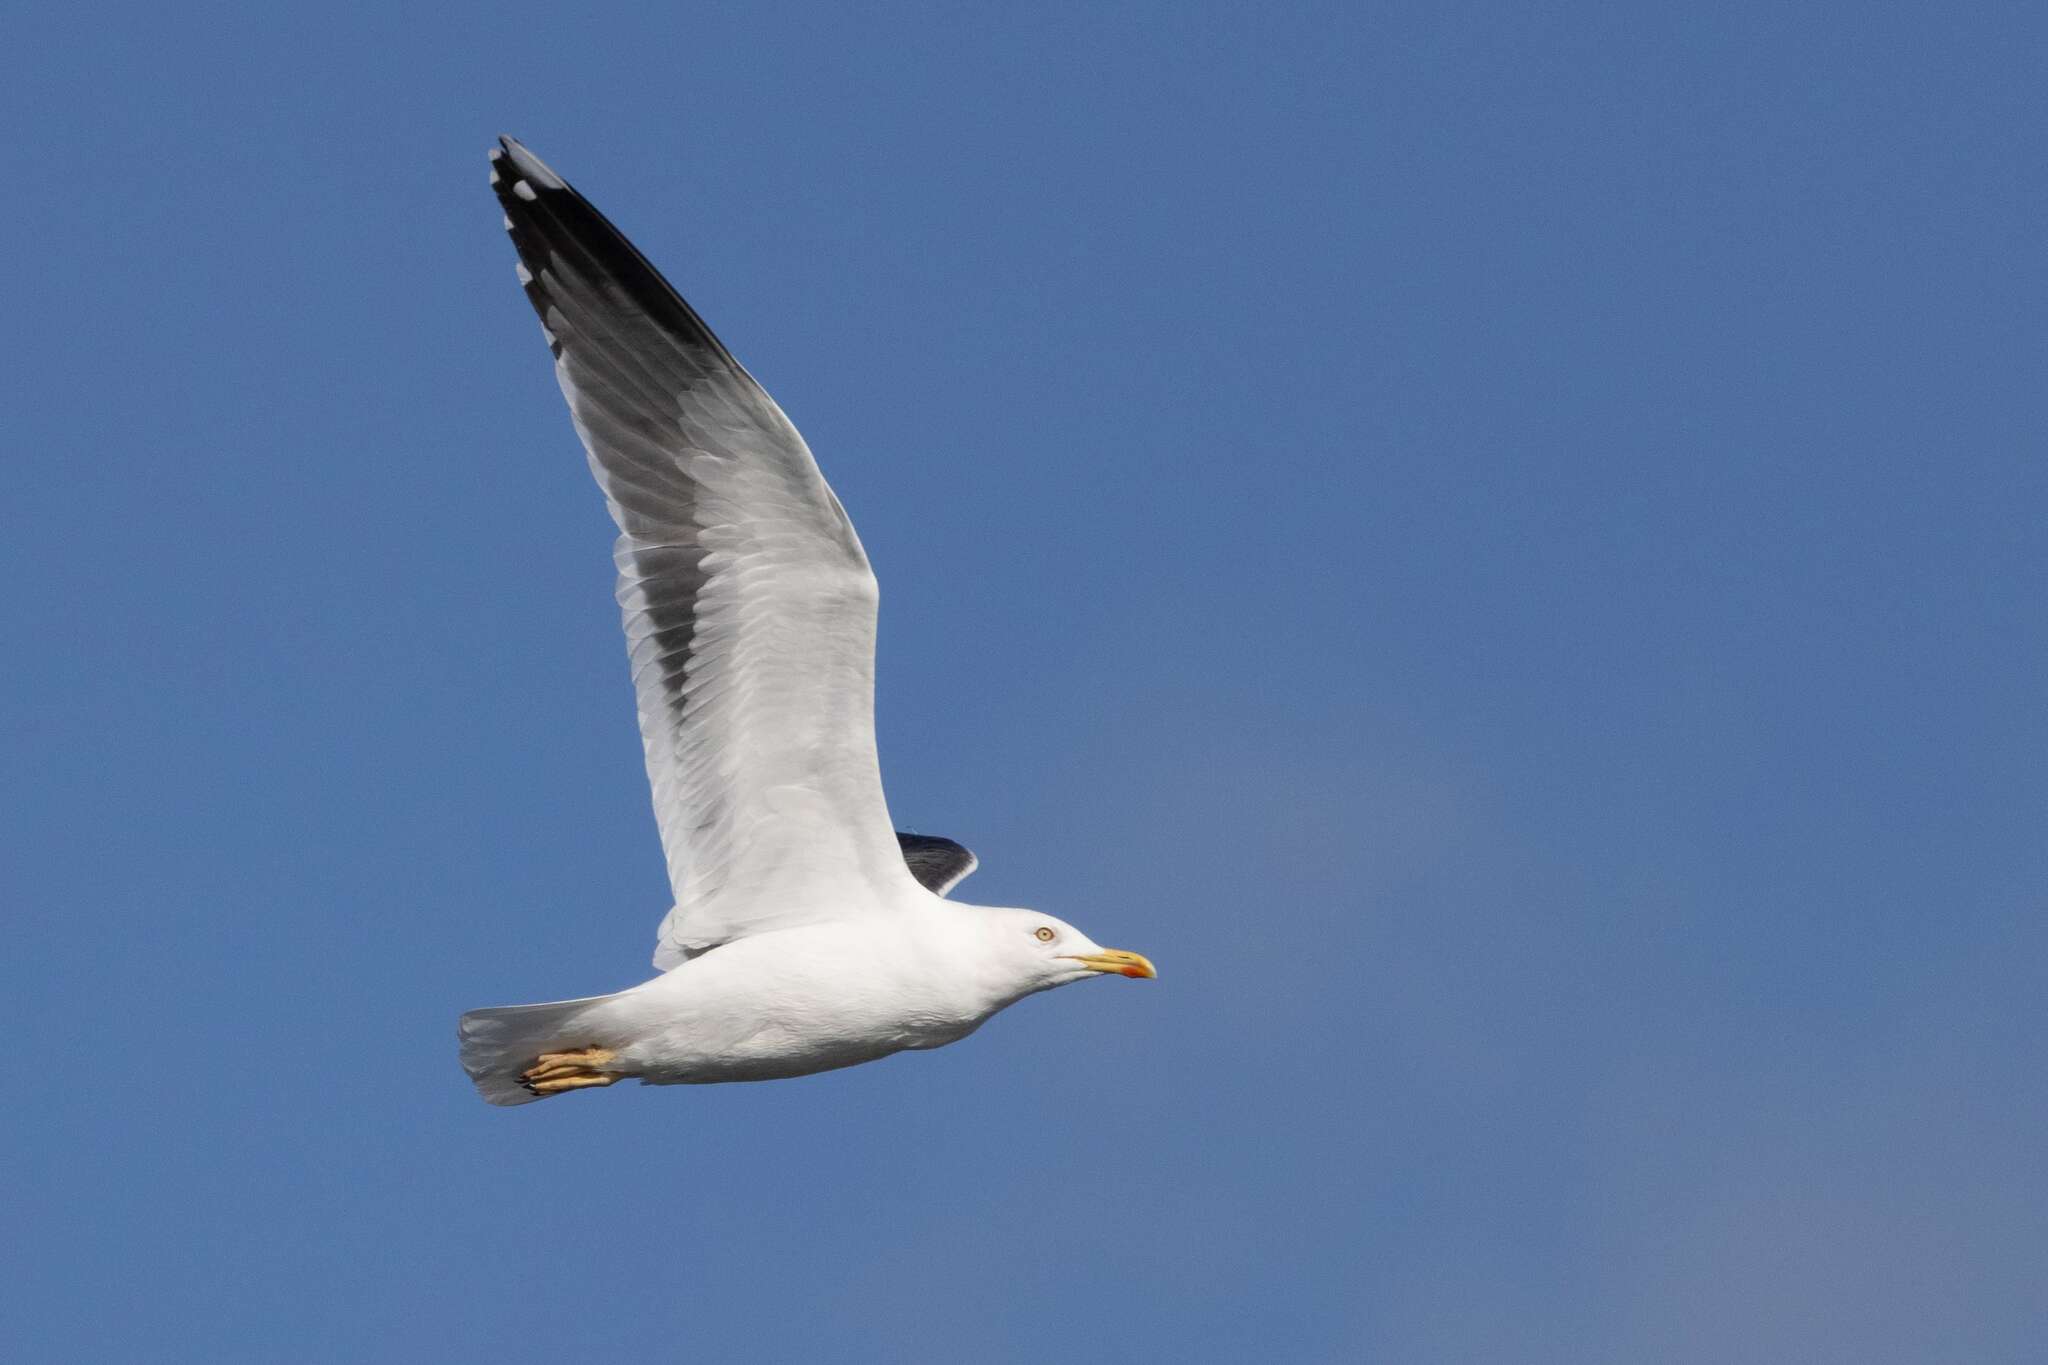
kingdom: Animalia
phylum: Chordata
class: Aves
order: Charadriiformes
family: Laridae
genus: Larus
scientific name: Larus fuscus
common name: Lesser black-backed gull
